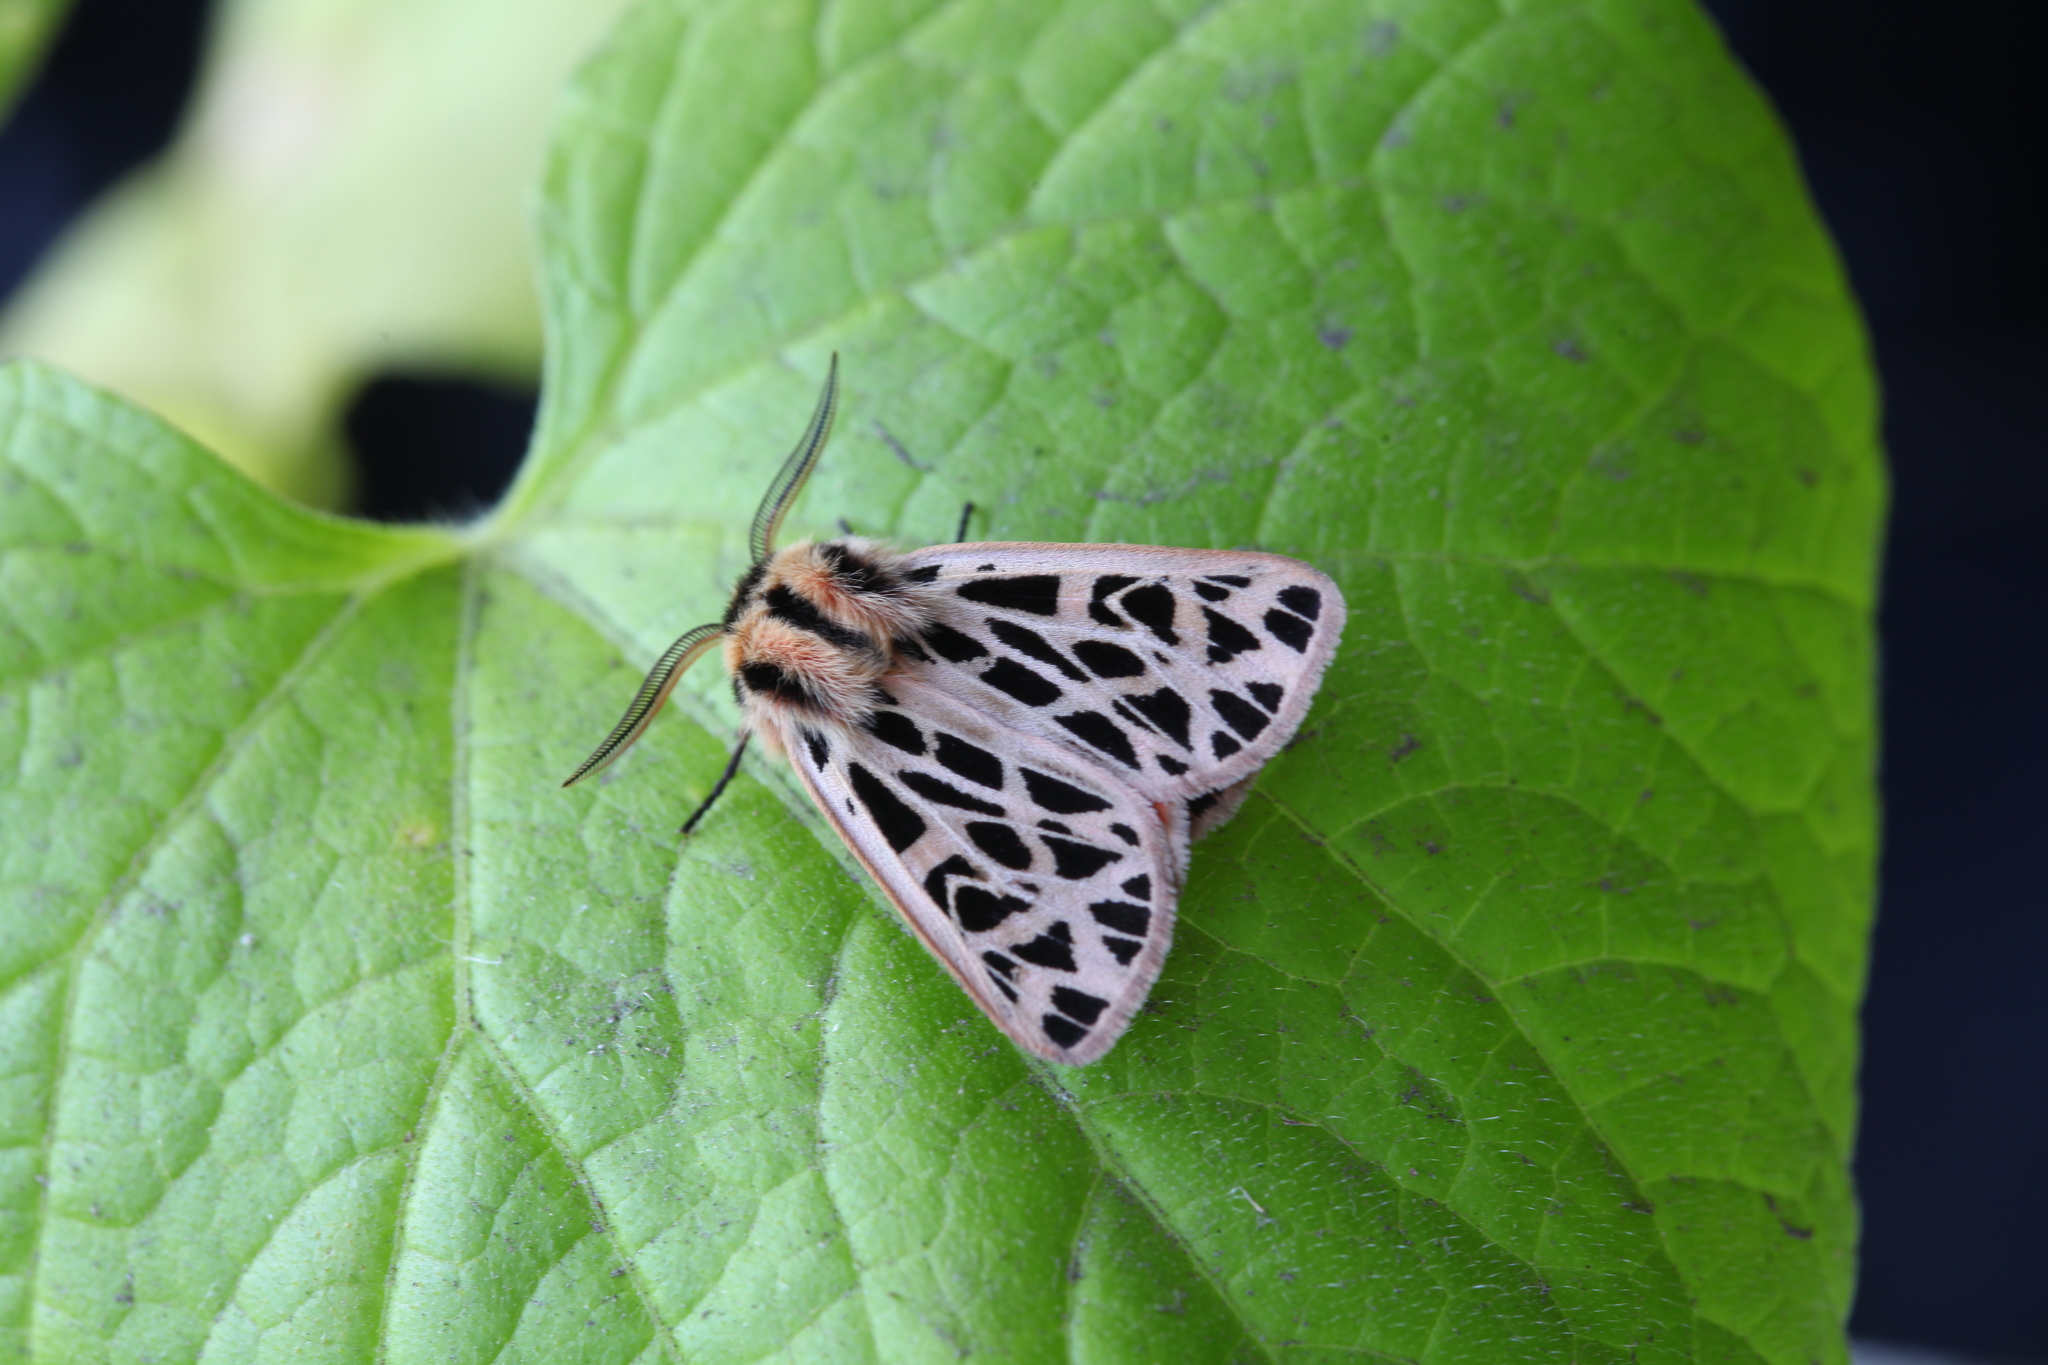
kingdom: Animalia
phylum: Arthropoda
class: Insecta
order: Lepidoptera
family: Erebidae
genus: Chelis
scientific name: Chelis dahurica
